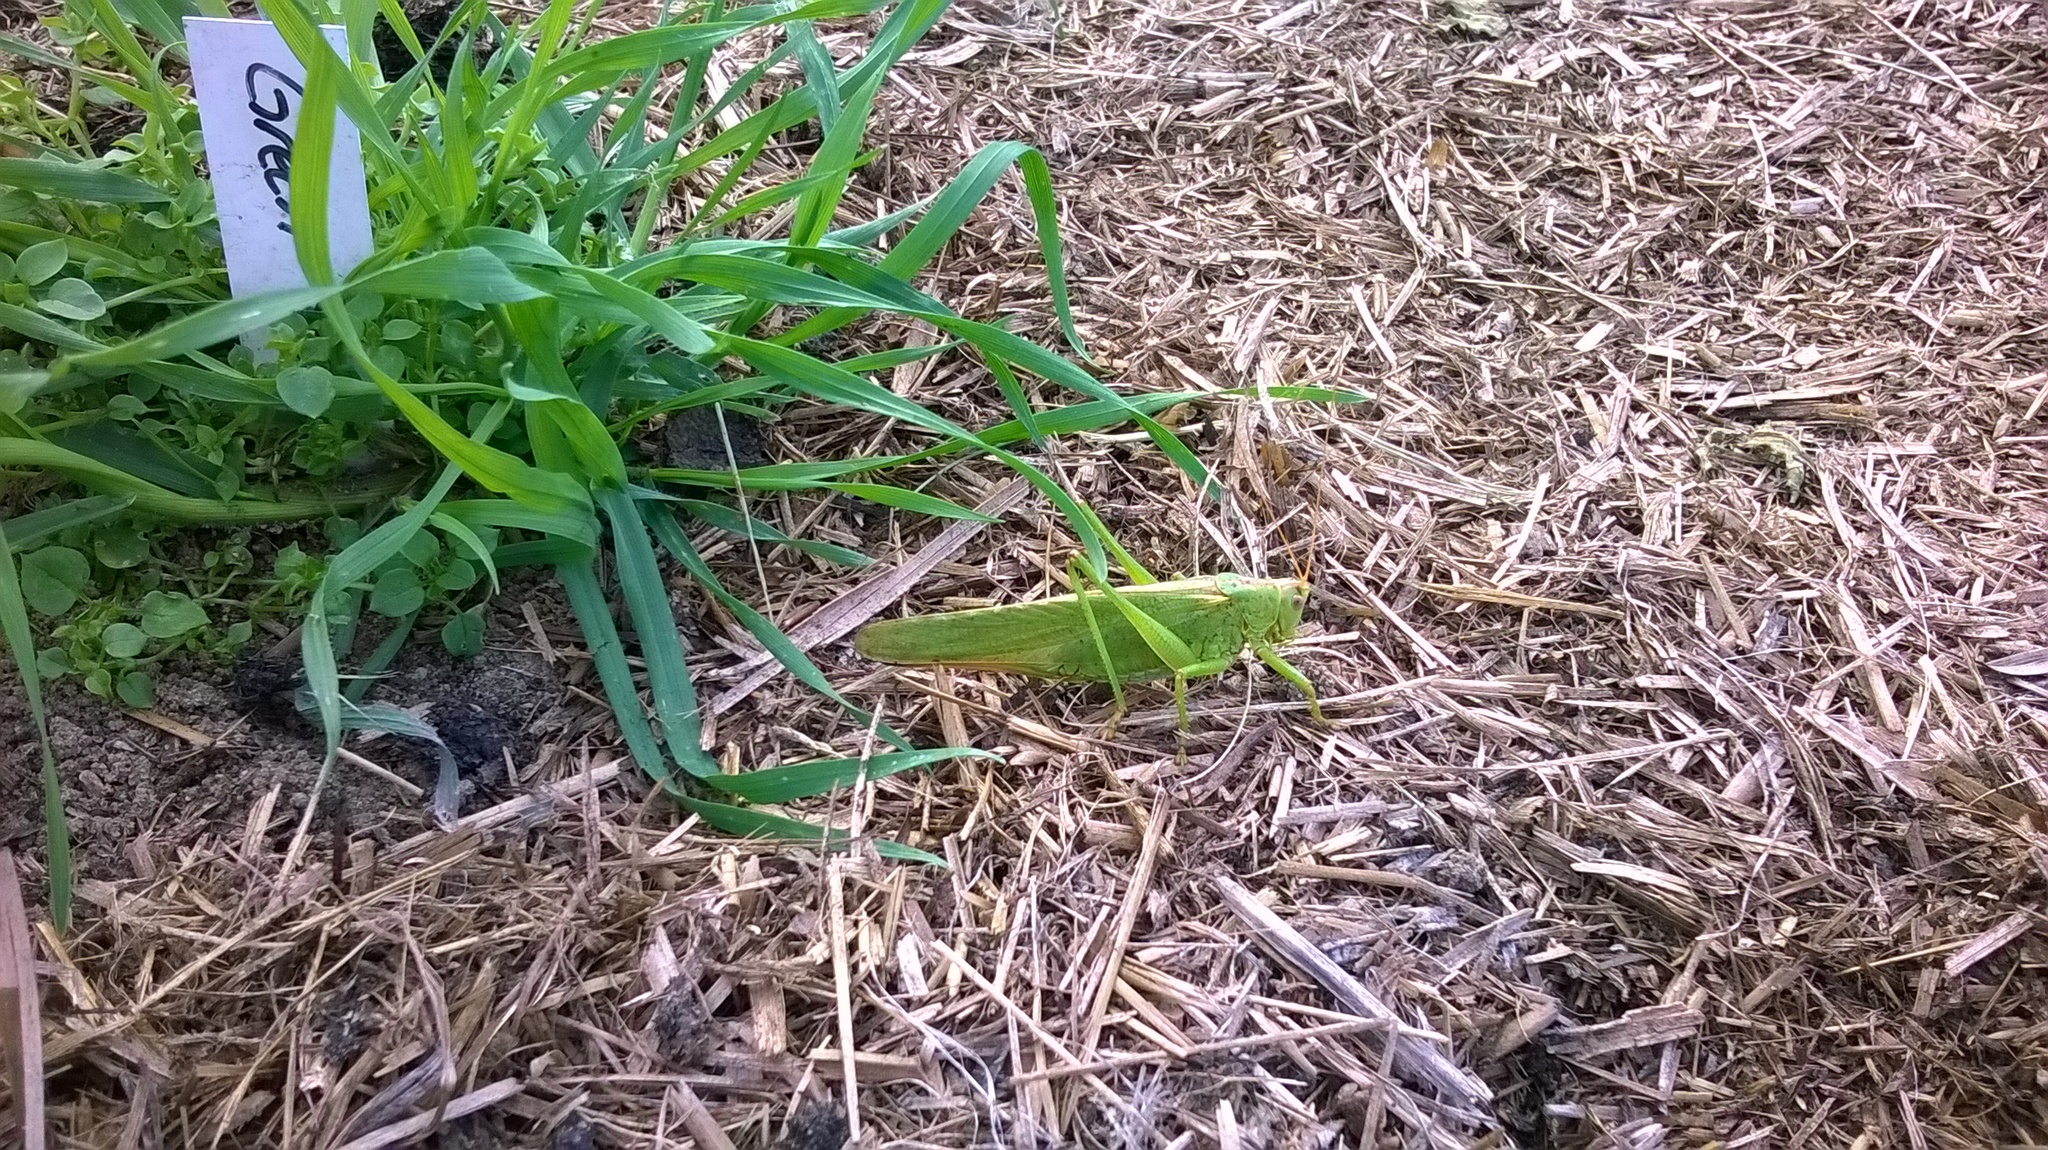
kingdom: Animalia
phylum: Arthropoda
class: Insecta
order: Orthoptera
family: Tettigoniidae
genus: Tettigonia
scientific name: Tettigonia viridissima
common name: Great green bush-cricket
